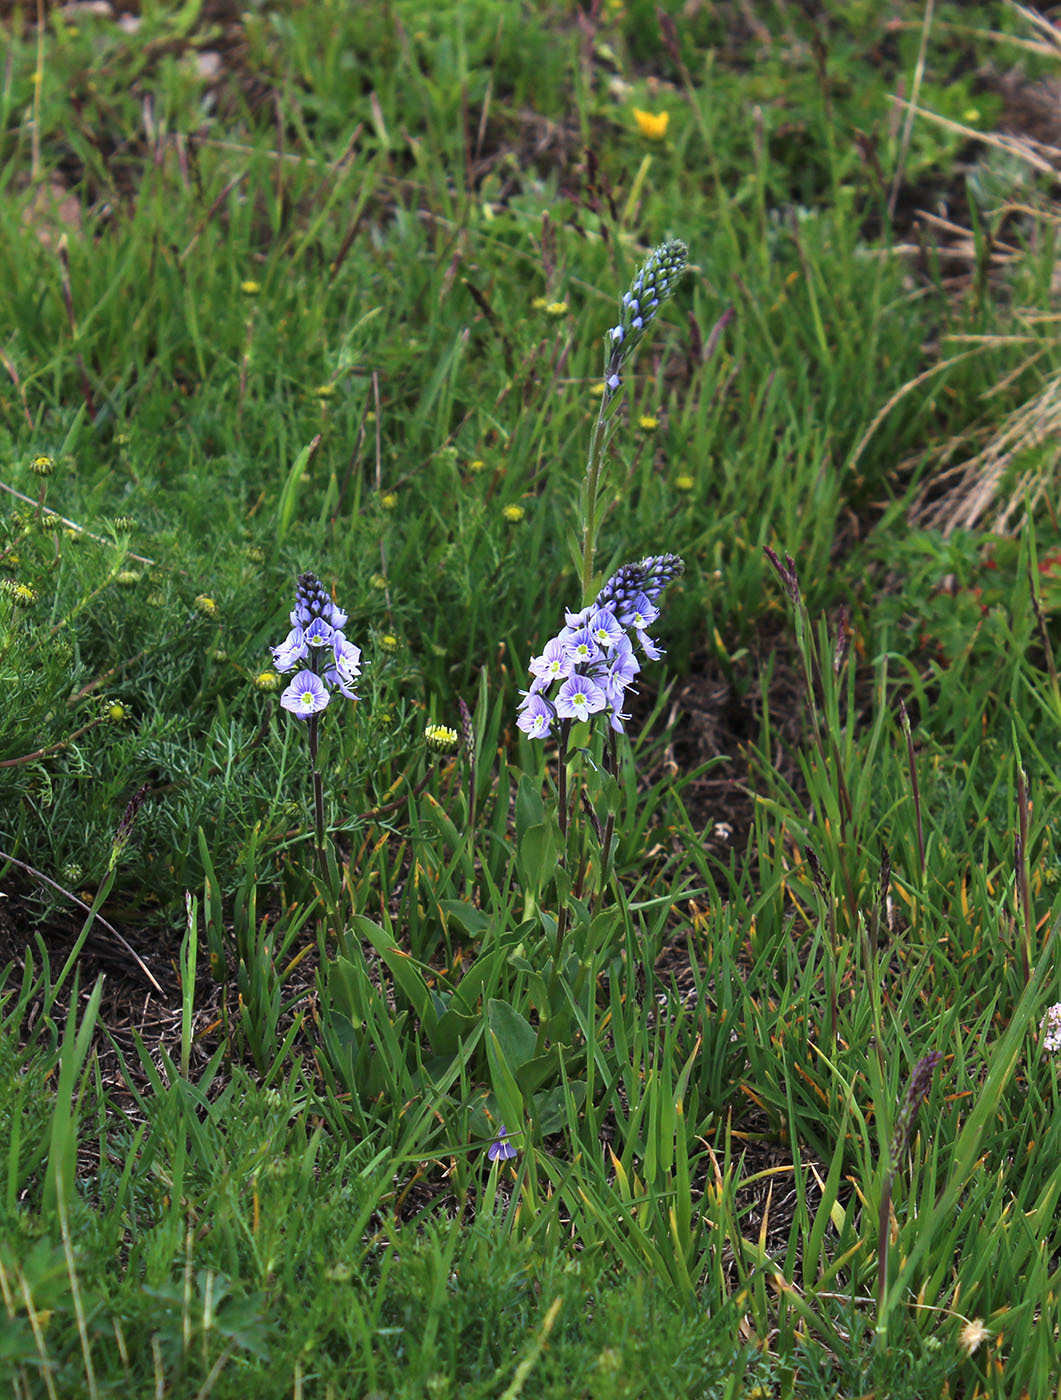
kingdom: Plantae
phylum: Tracheophyta
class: Magnoliopsida
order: Lamiales
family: Plantaginaceae
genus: Veronica
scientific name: Veronica gentianoides
